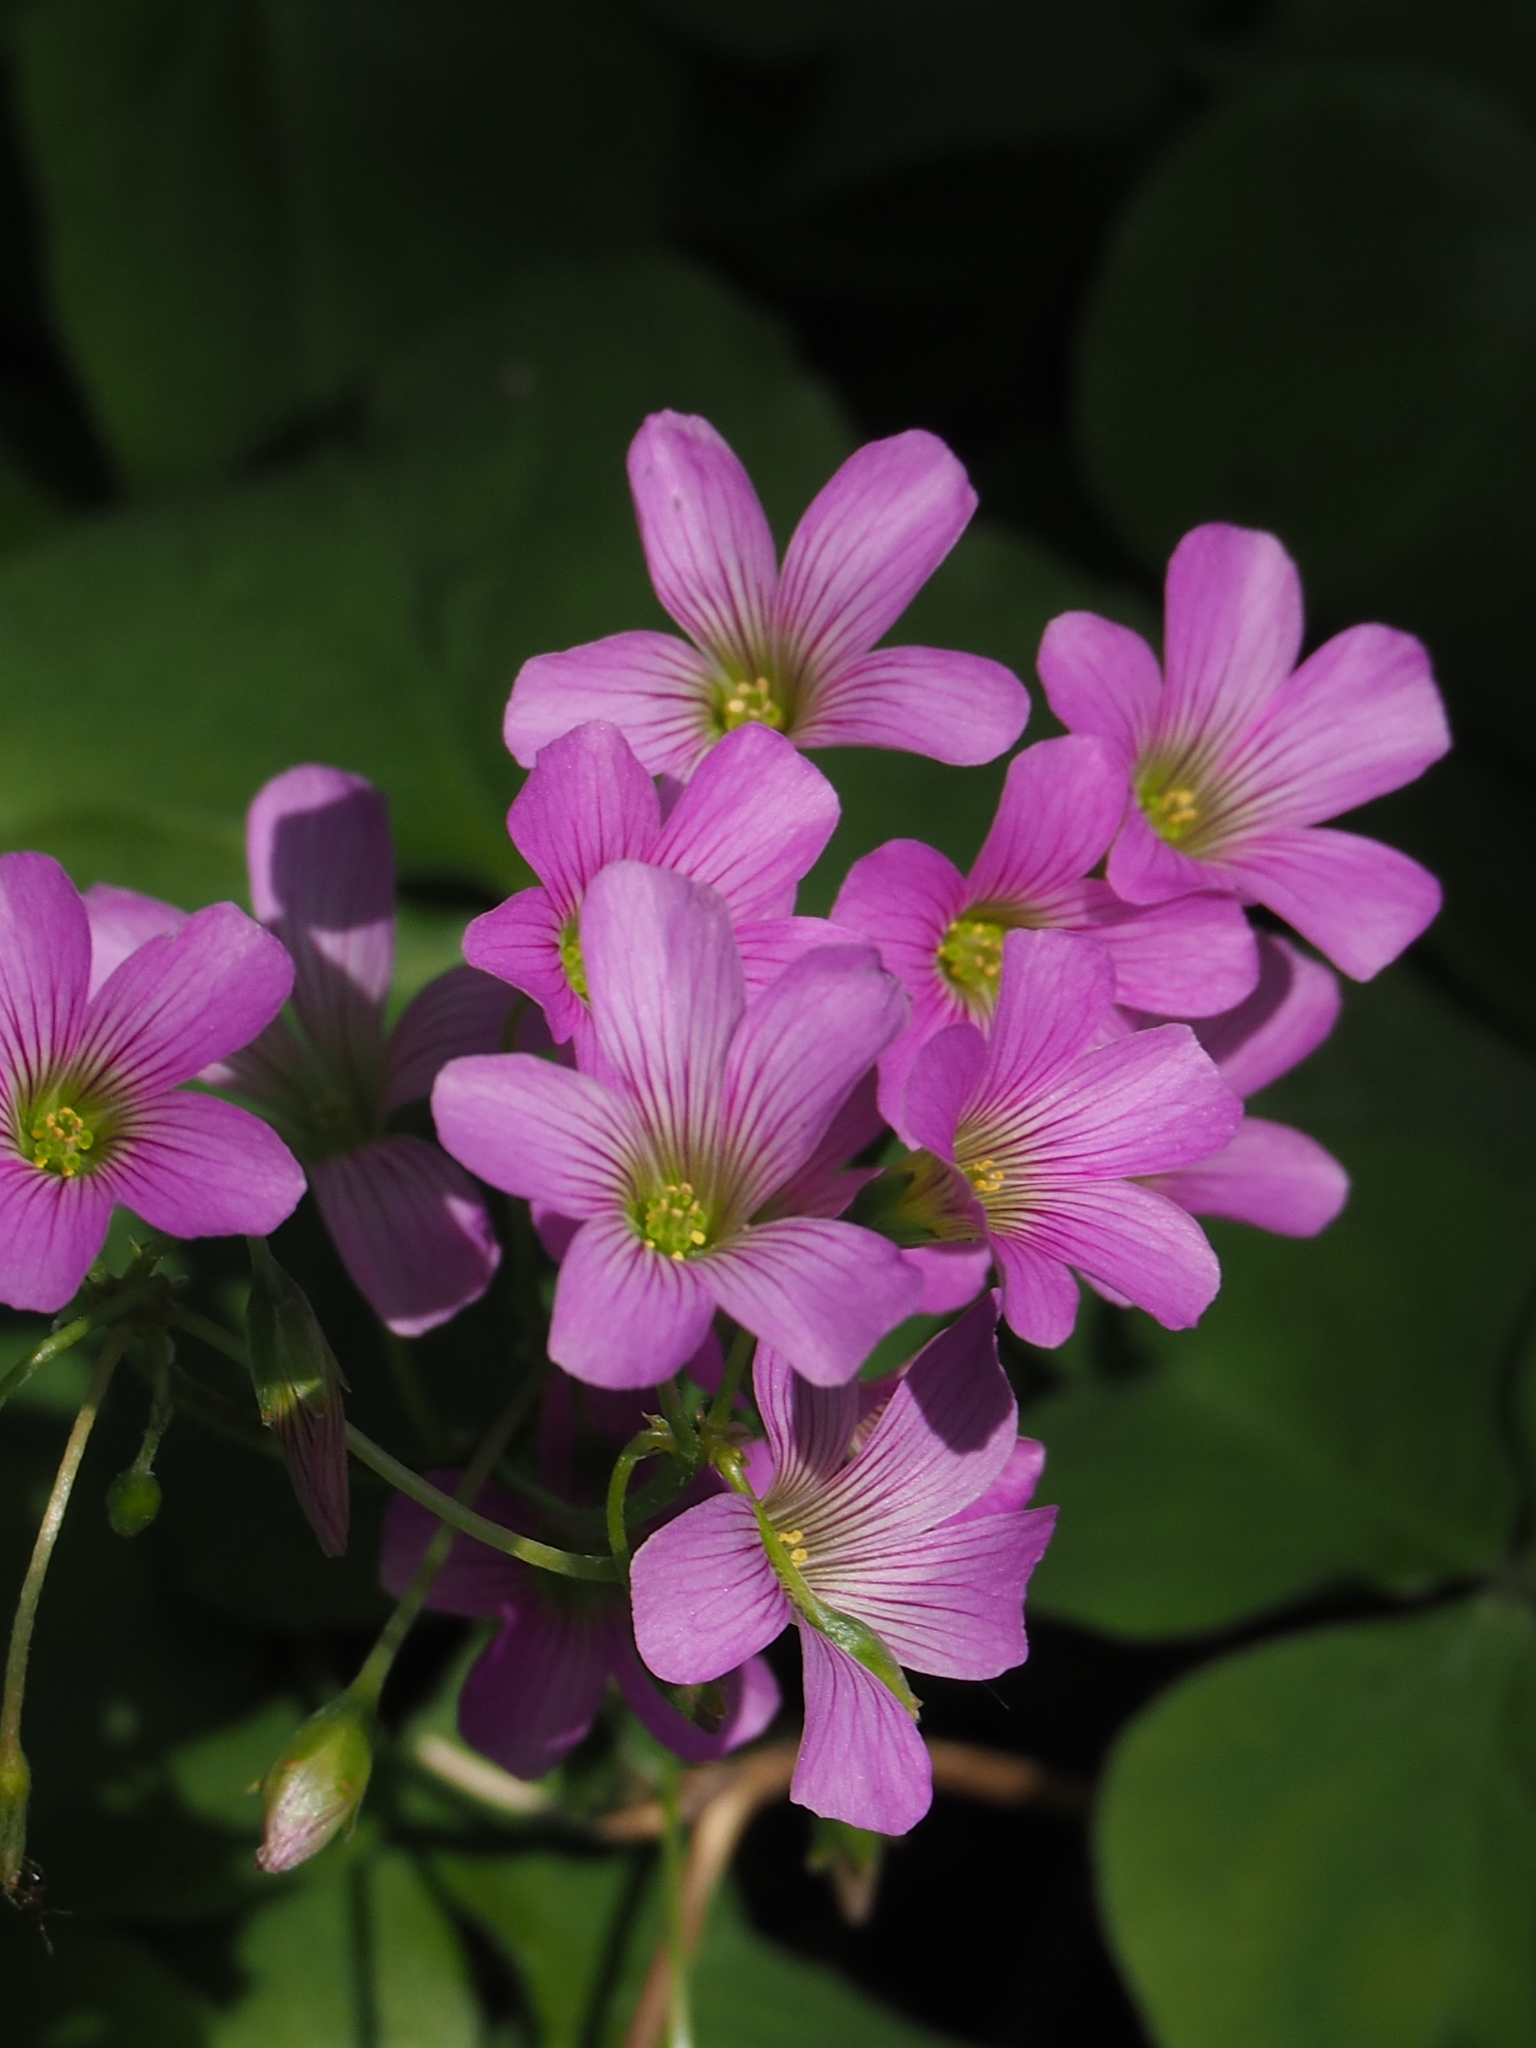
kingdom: Plantae
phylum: Tracheophyta
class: Magnoliopsida
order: Oxalidales
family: Oxalidaceae
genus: Oxalis
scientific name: Oxalis debilis
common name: Large-flowered pink-sorrel
